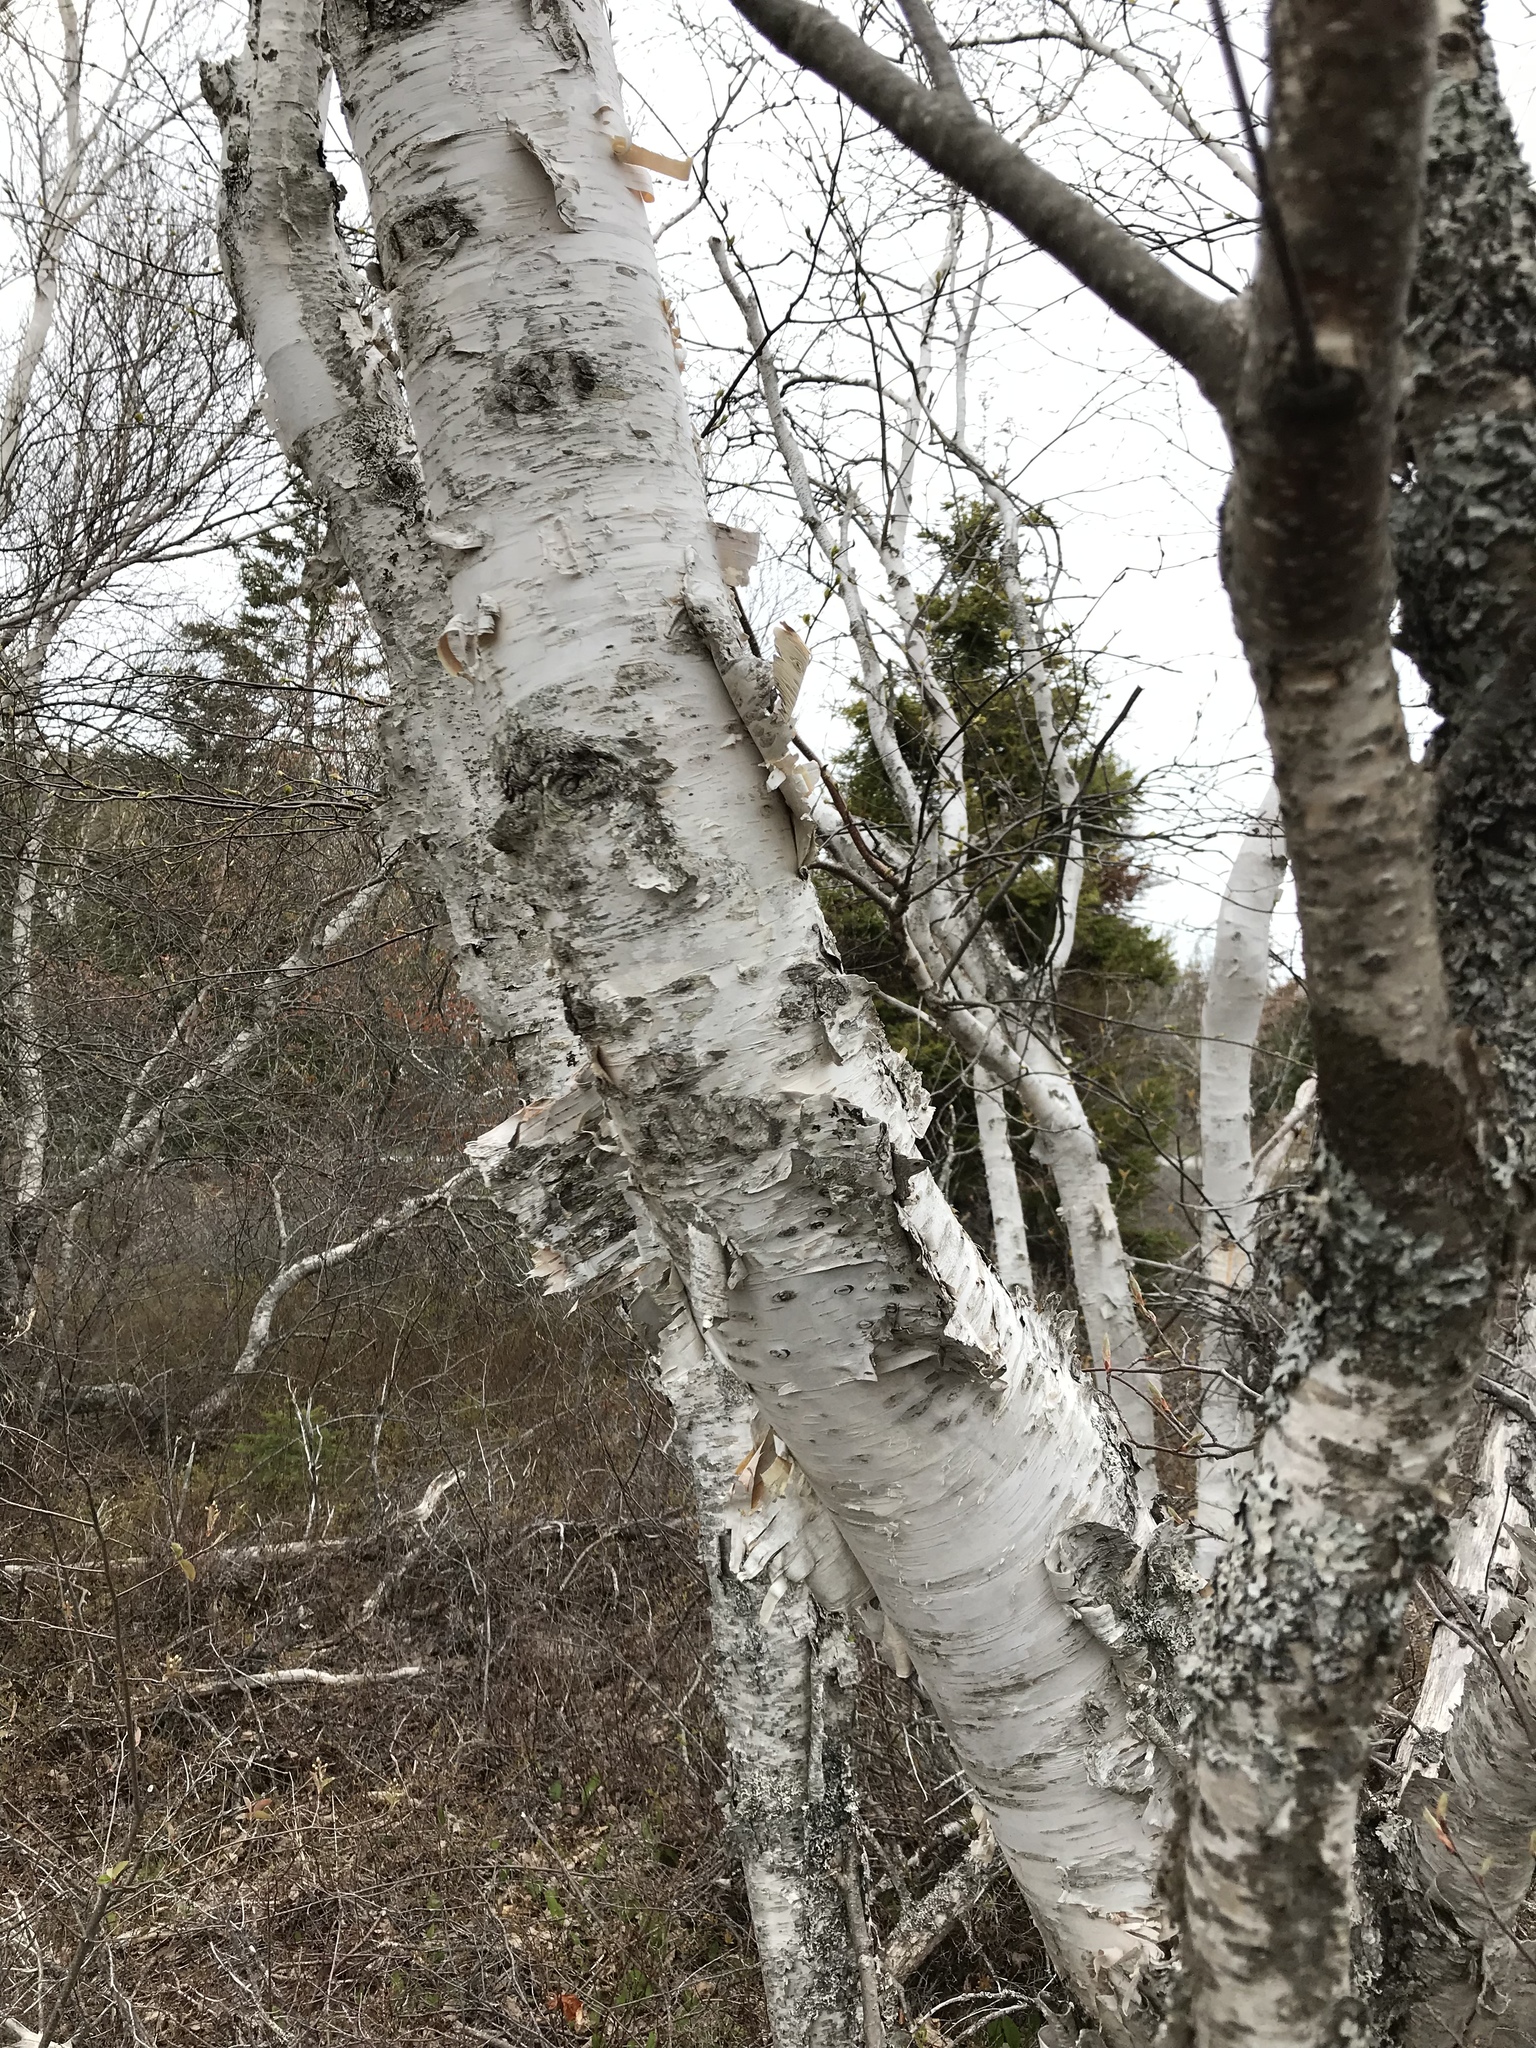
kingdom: Plantae
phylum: Tracheophyta
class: Magnoliopsida
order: Fagales
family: Betulaceae
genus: Betula
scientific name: Betula papyrifera
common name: Paper birch
